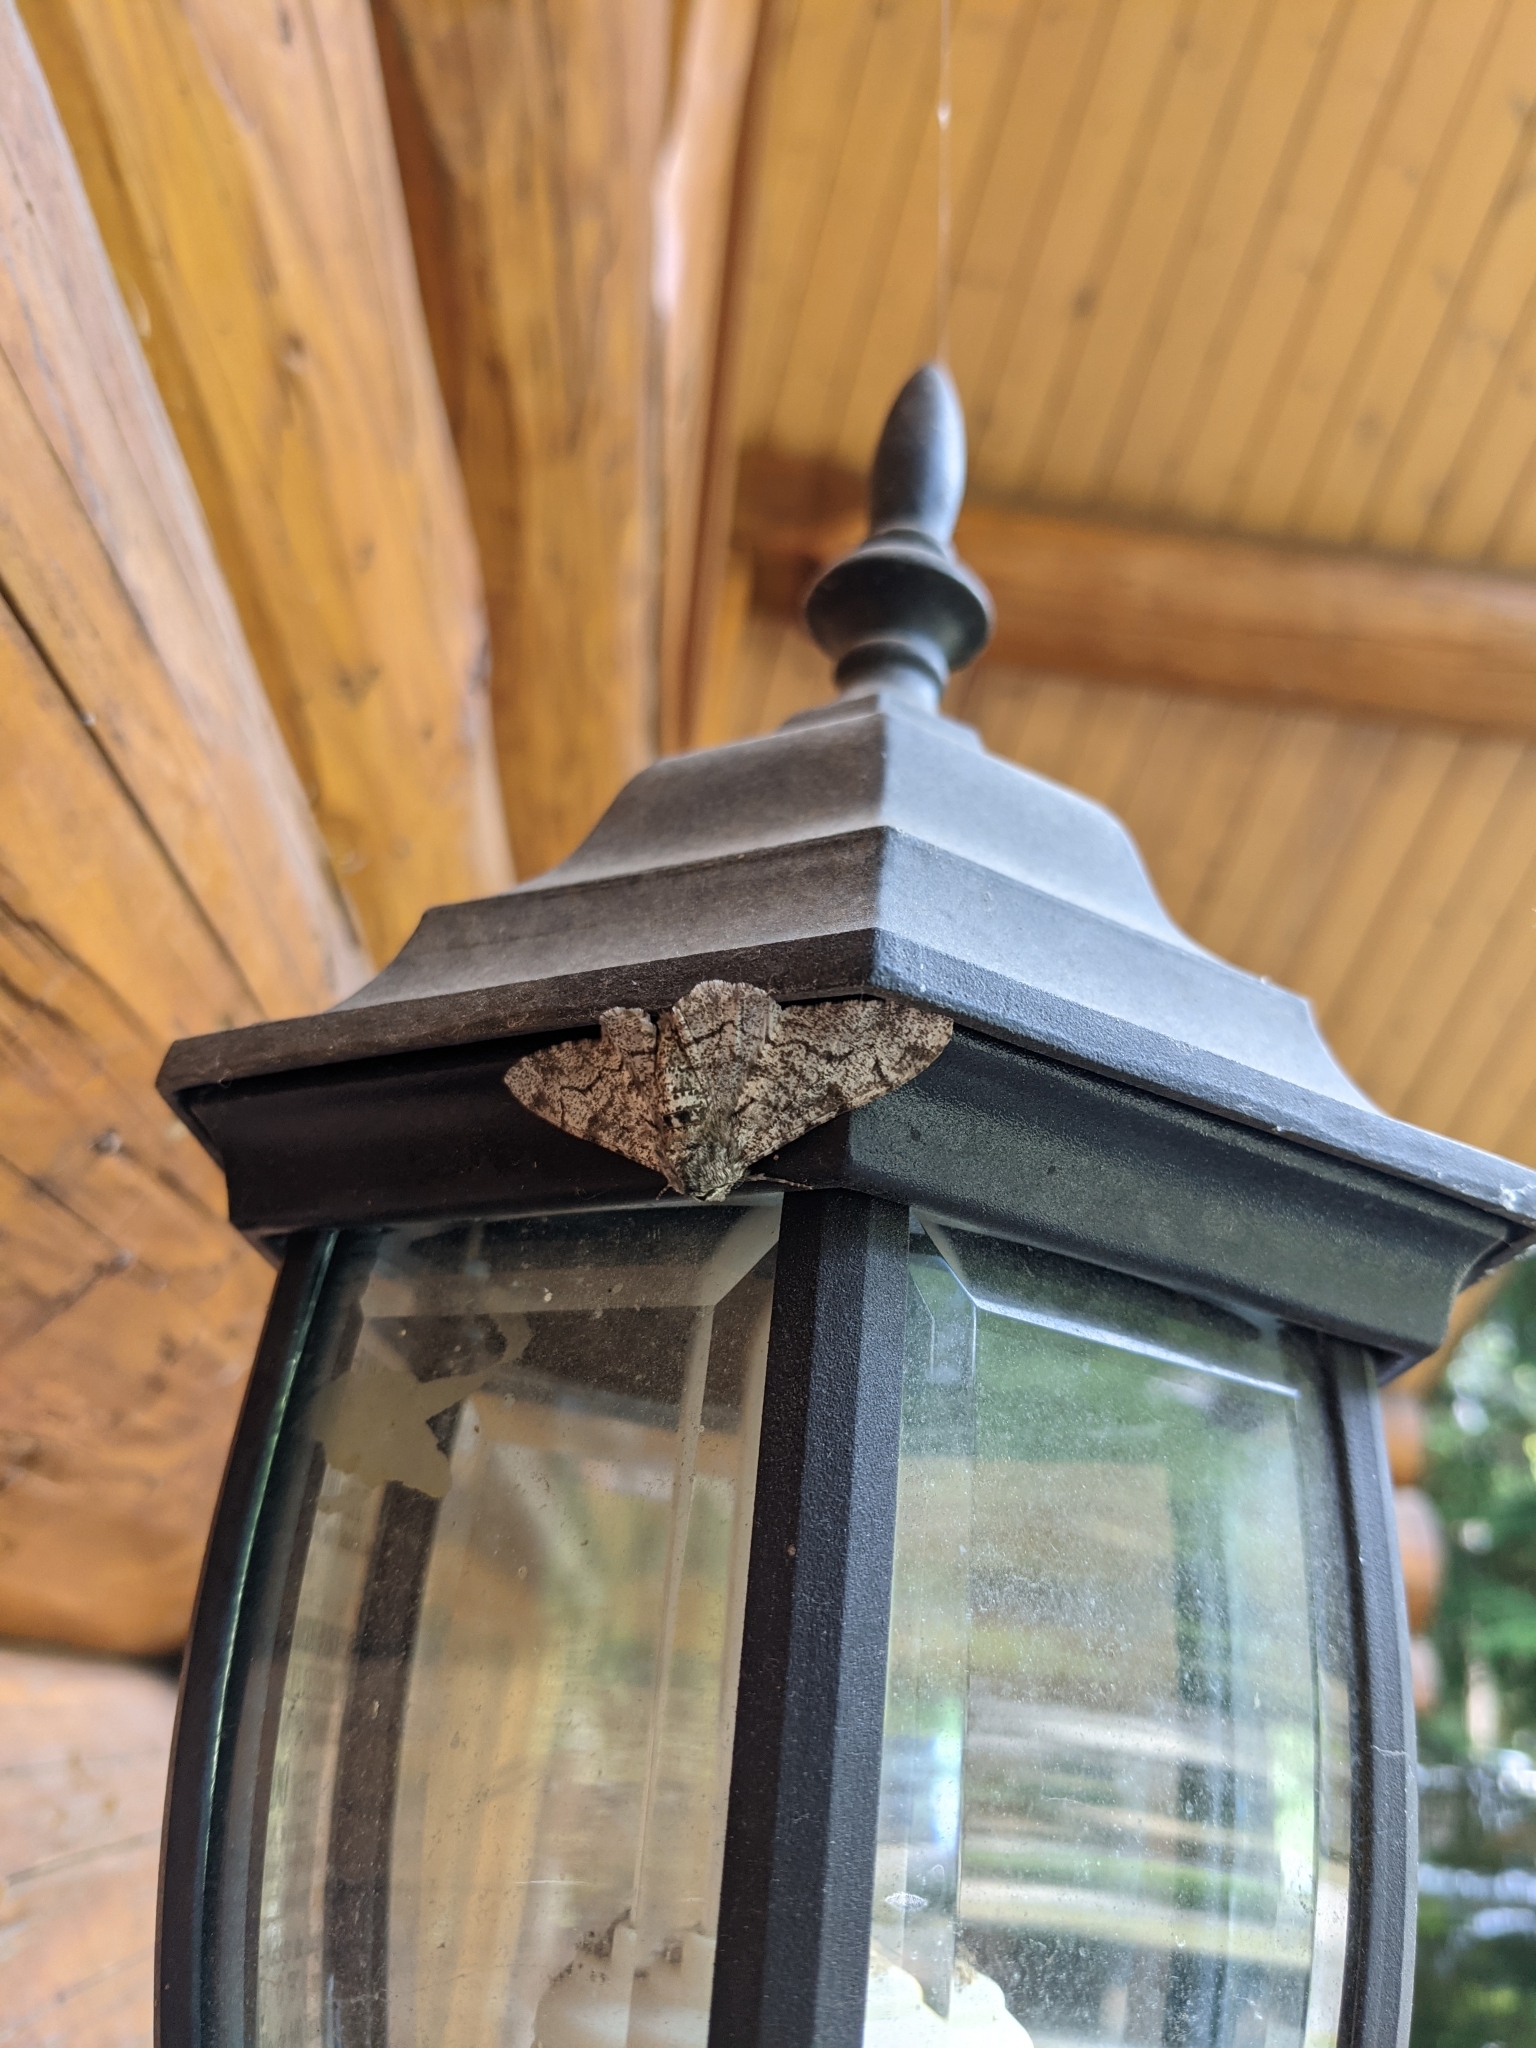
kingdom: Animalia
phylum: Arthropoda
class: Insecta
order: Lepidoptera
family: Geometridae
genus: Biston
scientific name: Biston betularia
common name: Peppered moth
